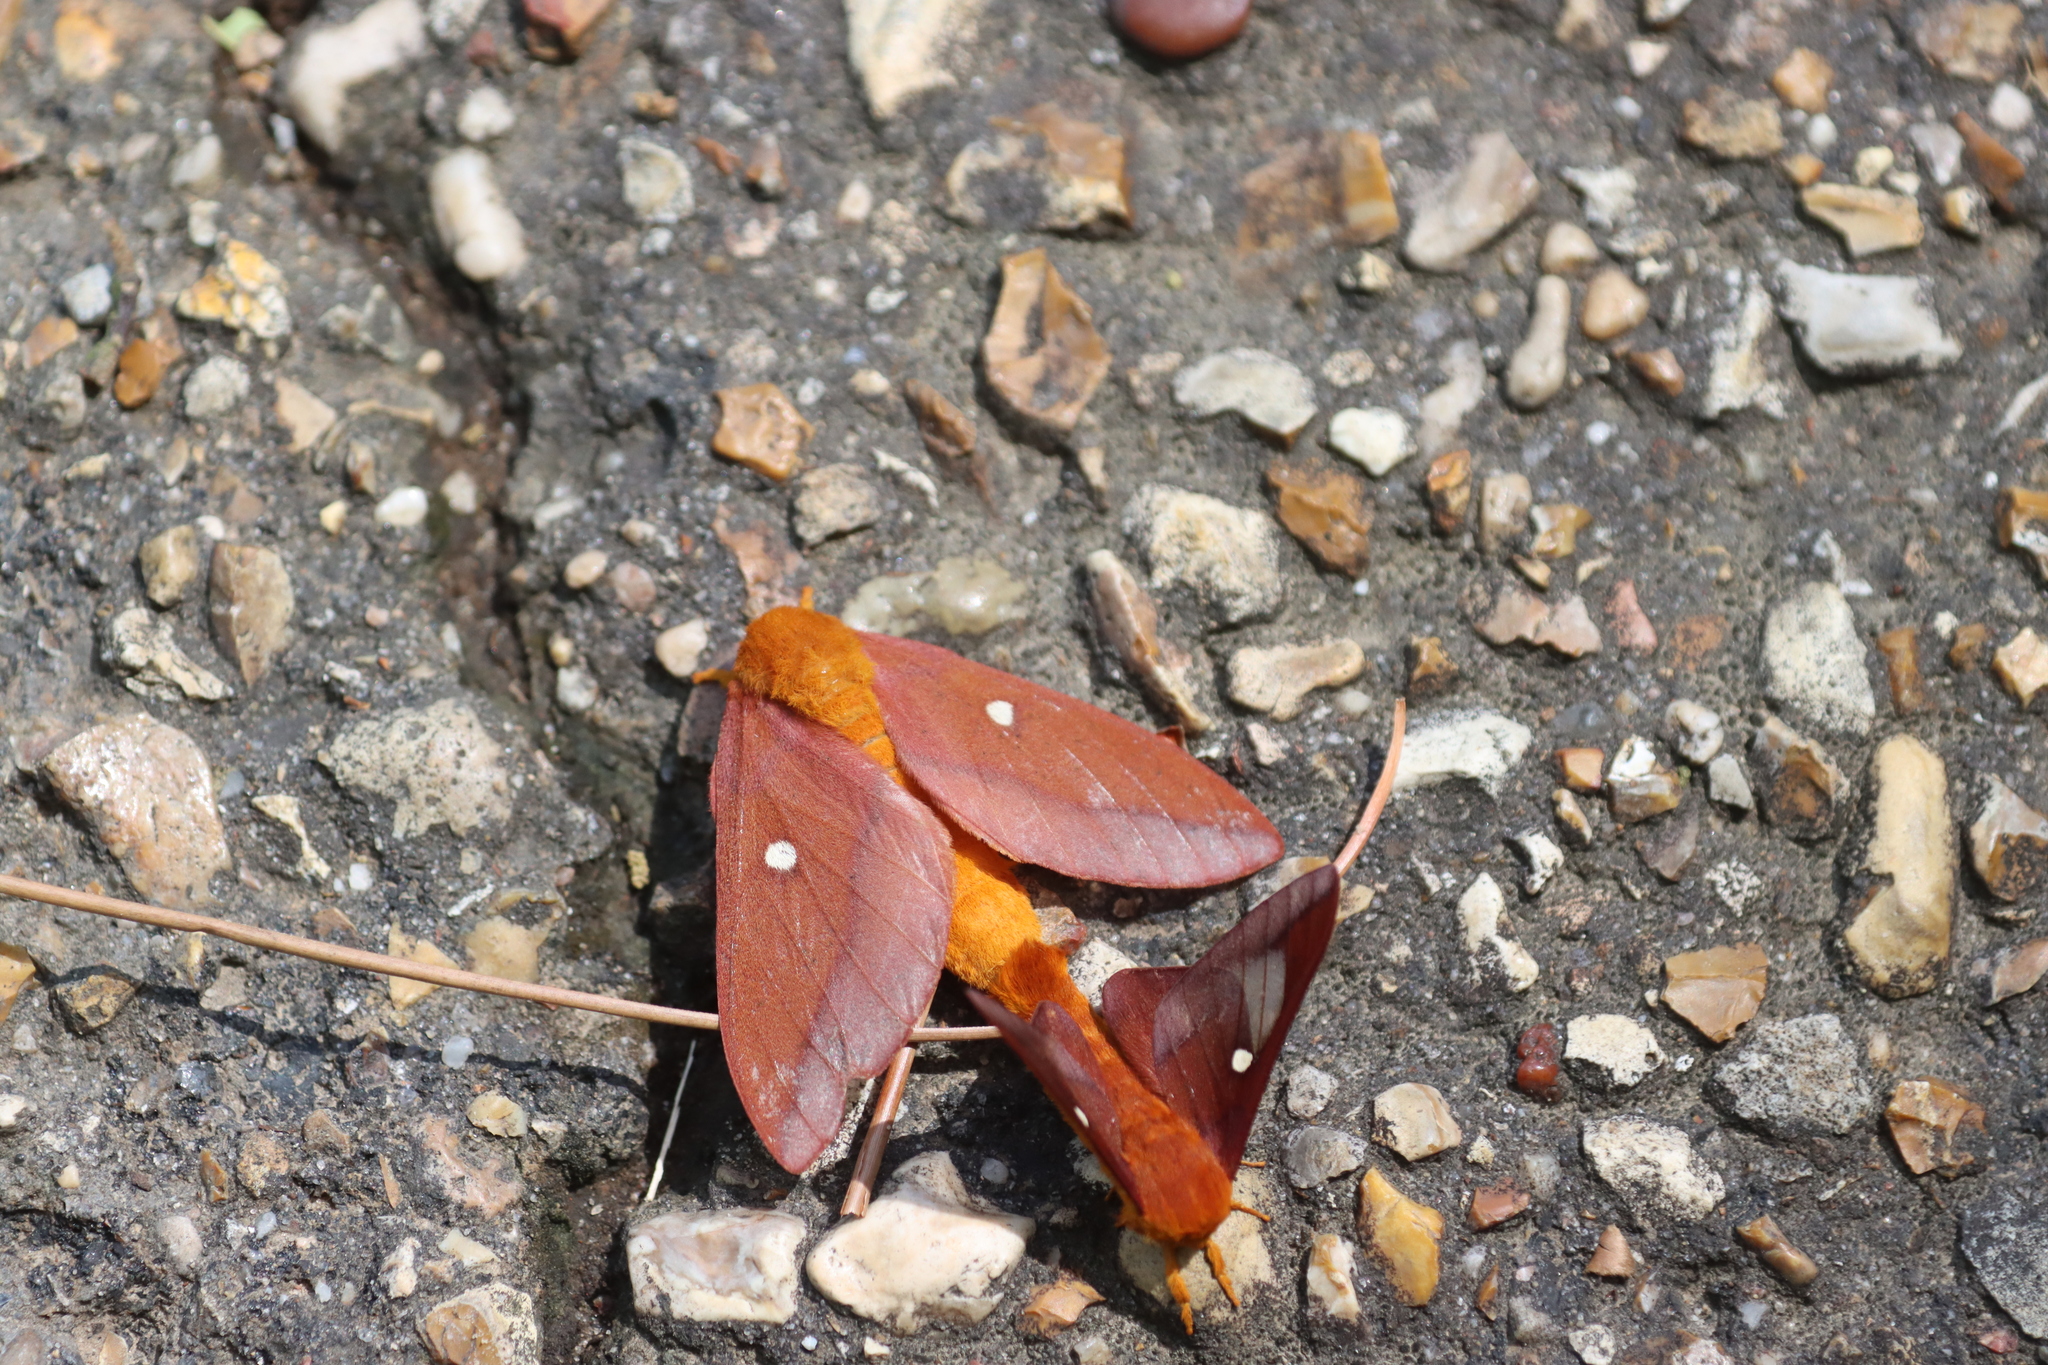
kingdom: Animalia
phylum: Arthropoda
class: Insecta
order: Lepidoptera
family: Saturniidae
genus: Anisota
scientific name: Anisota virginiensis
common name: Pink striped oakworm moth
